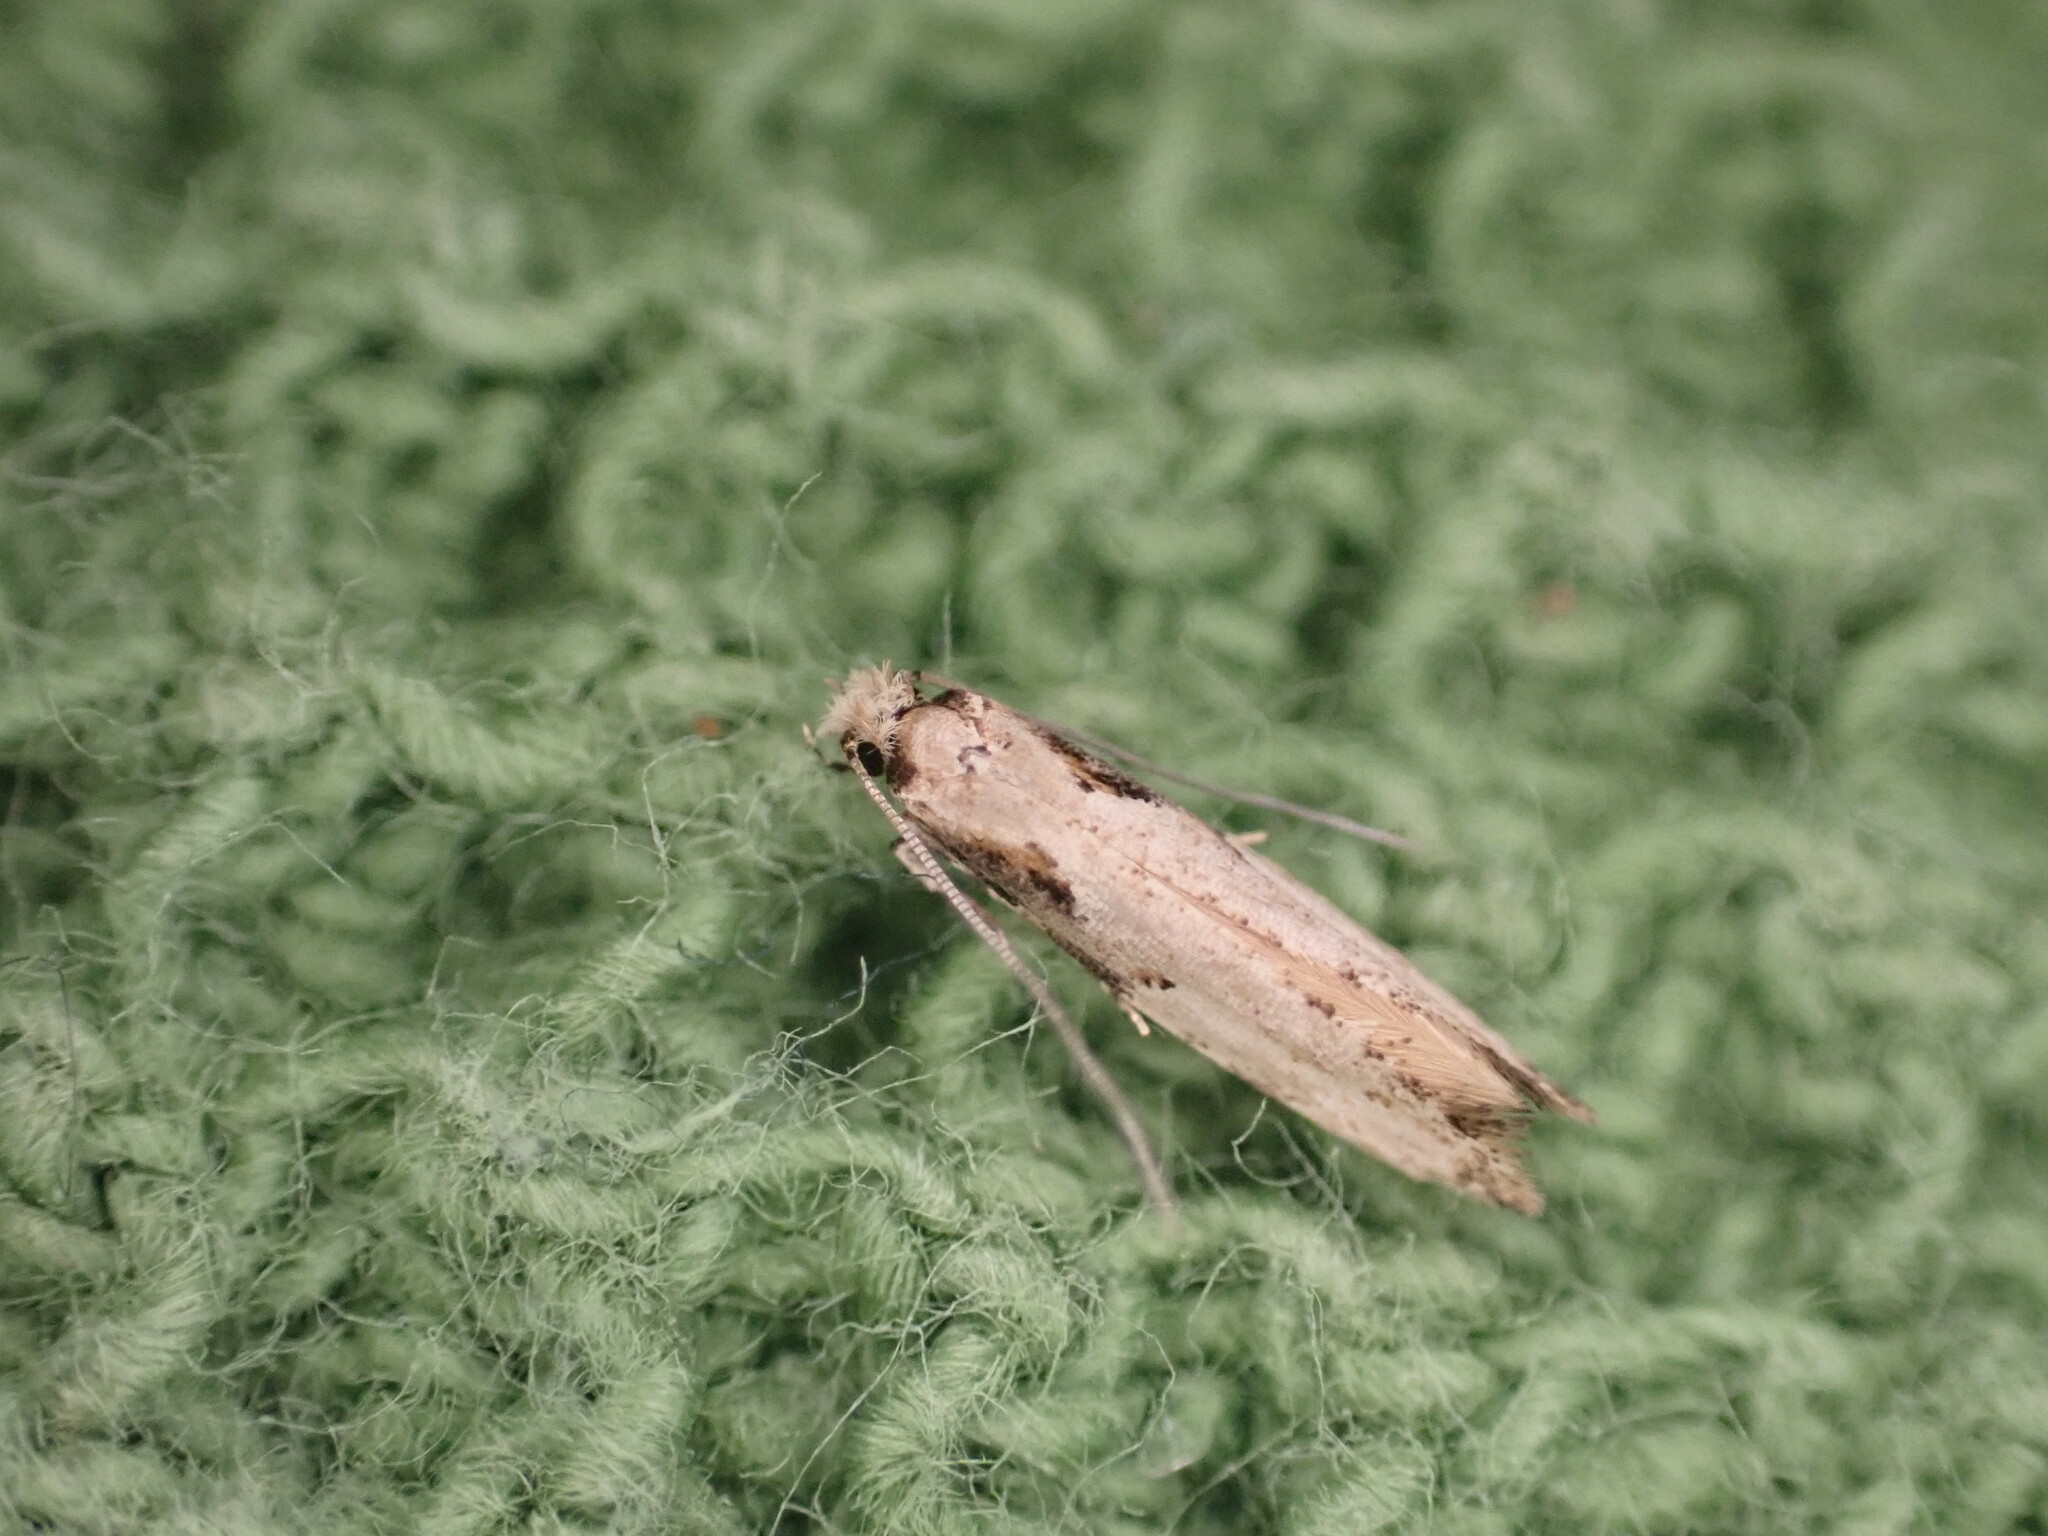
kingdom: Animalia
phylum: Arthropoda
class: Insecta
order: Lepidoptera
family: Tineidae
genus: Crypsitricha
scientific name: Crypsitricha pharotoma
